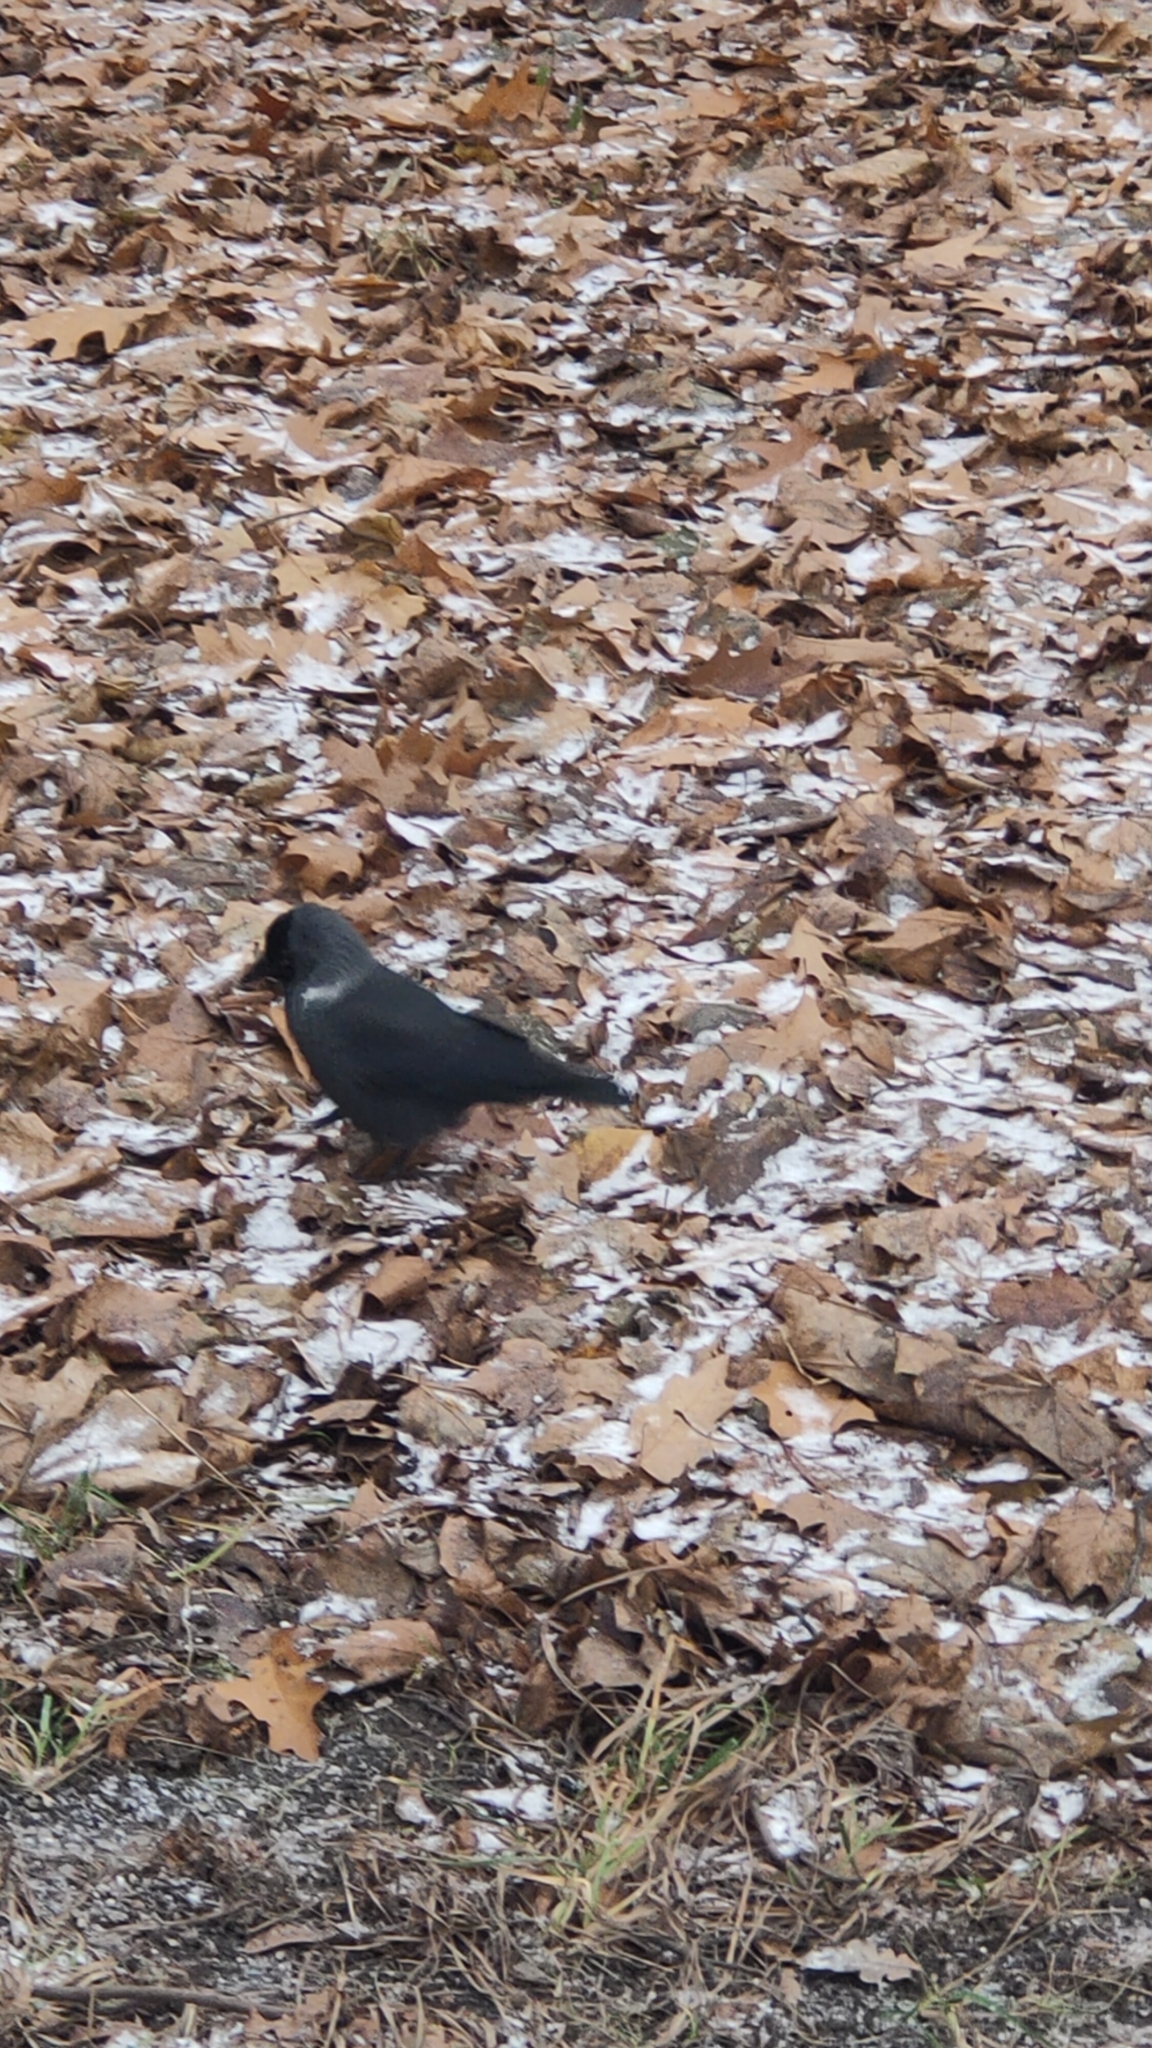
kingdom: Animalia
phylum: Chordata
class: Aves
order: Passeriformes
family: Corvidae
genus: Coloeus
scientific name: Coloeus monedula
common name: Western jackdaw
